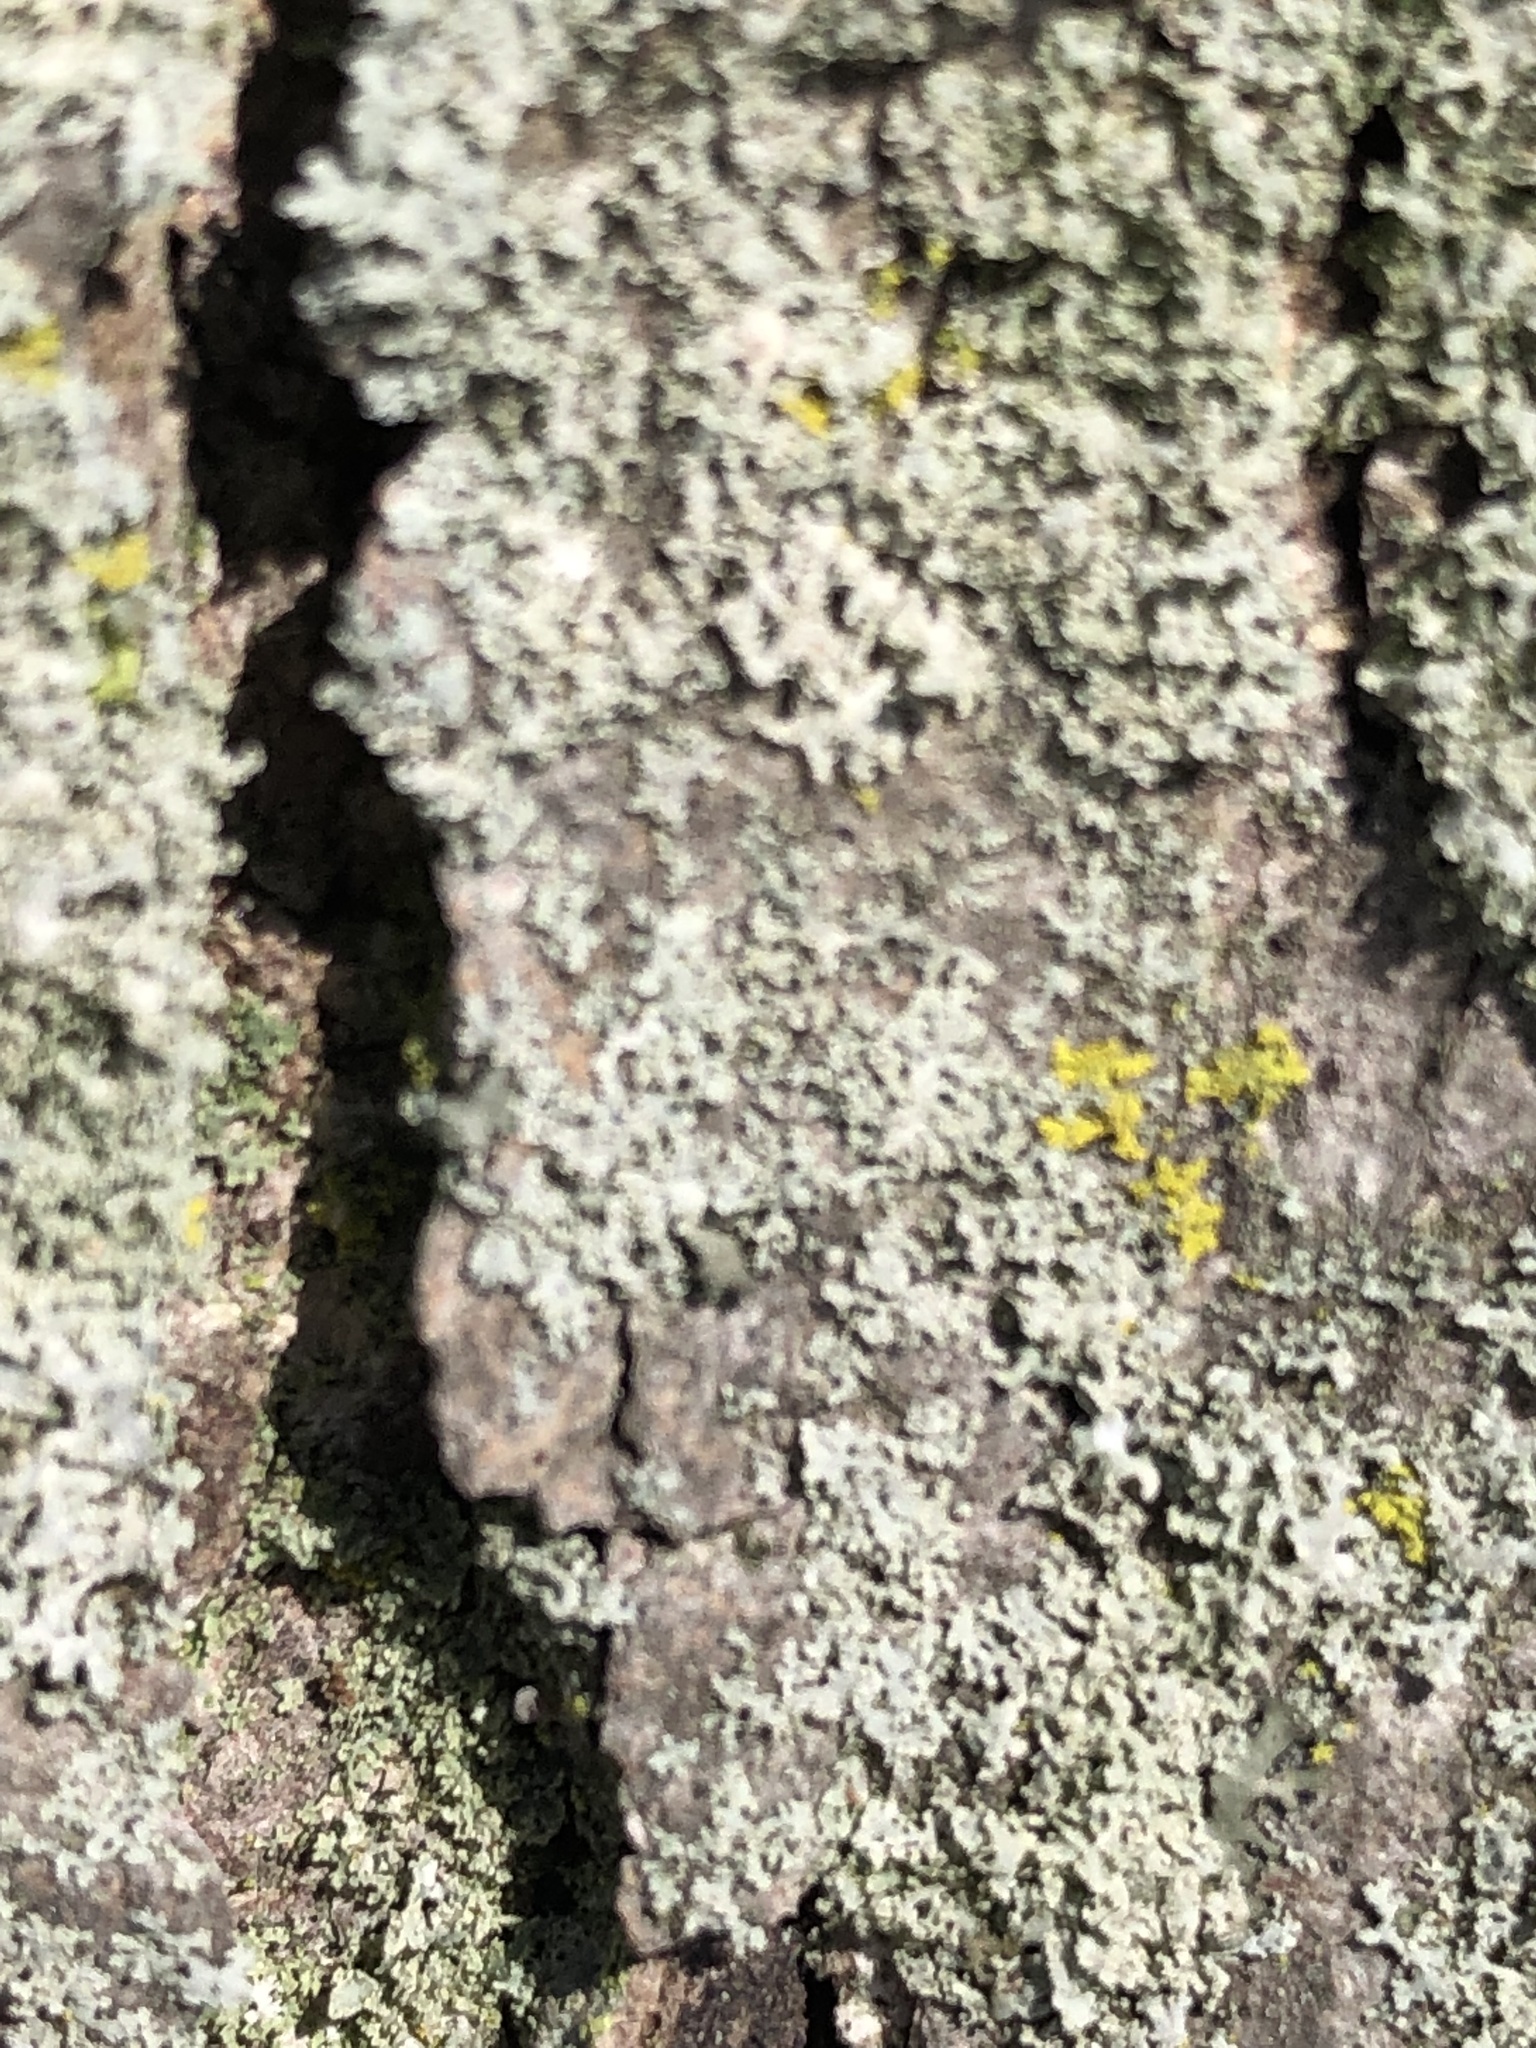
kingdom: Fungi
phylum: Ascomycota
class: Lecanoromycetes
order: Caliciales
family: Physciaceae
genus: Physcia
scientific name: Physcia millegrana
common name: Rosette lichen
